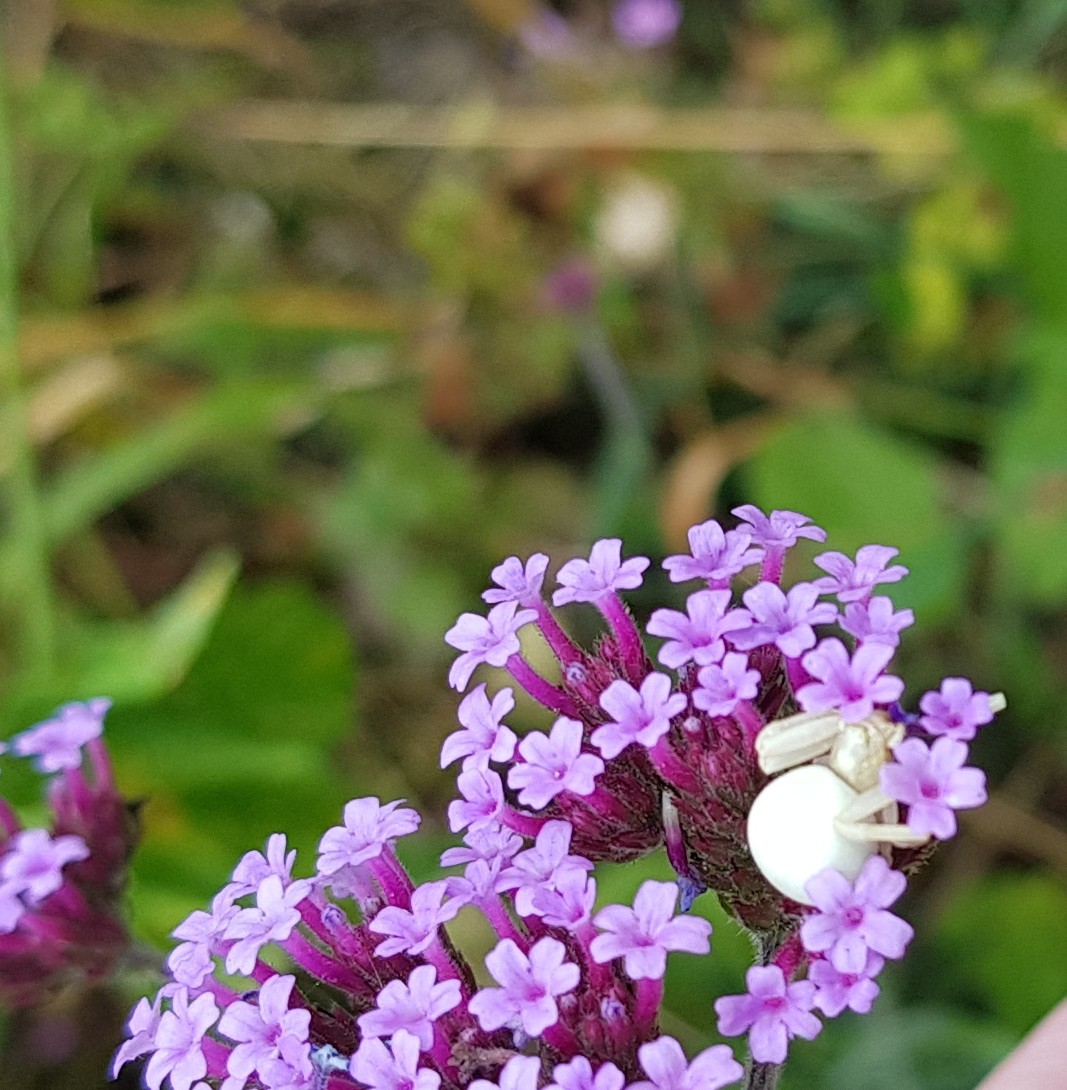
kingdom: Animalia
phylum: Arthropoda
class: Arachnida
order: Araneae
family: Thomisidae
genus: Misumena
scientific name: Misumena vatia
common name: Goldenrod crab spider
